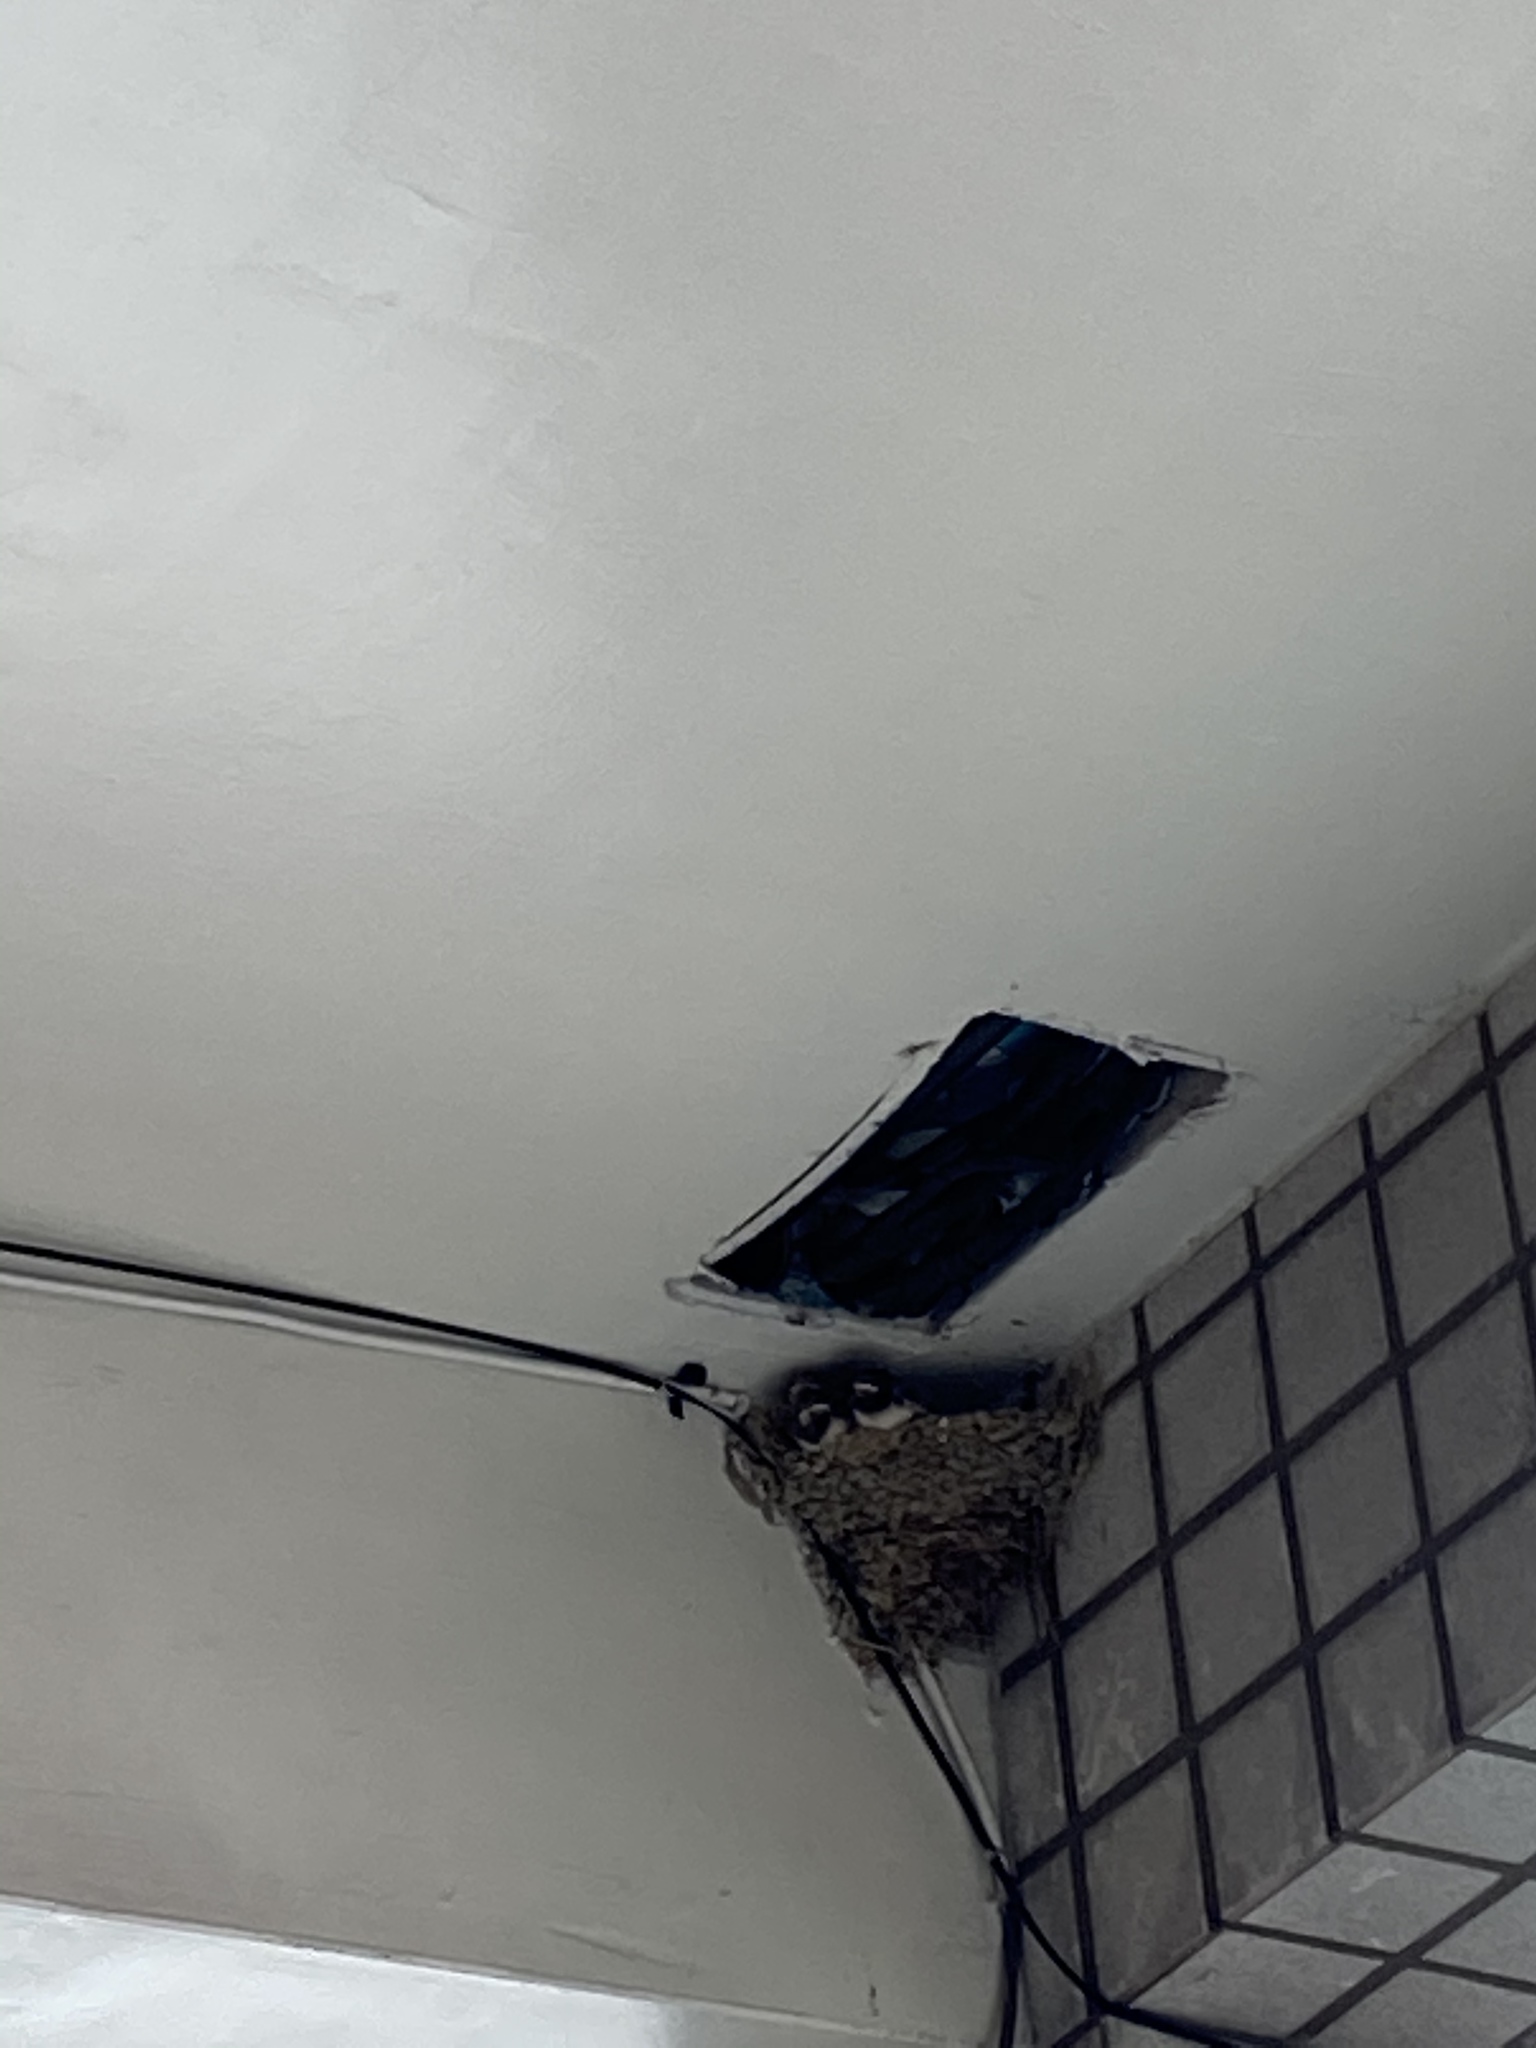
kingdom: Animalia
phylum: Chordata
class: Aves
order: Passeriformes
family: Hirundinidae
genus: Hirundo
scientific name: Hirundo rustica
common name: Barn swallow
